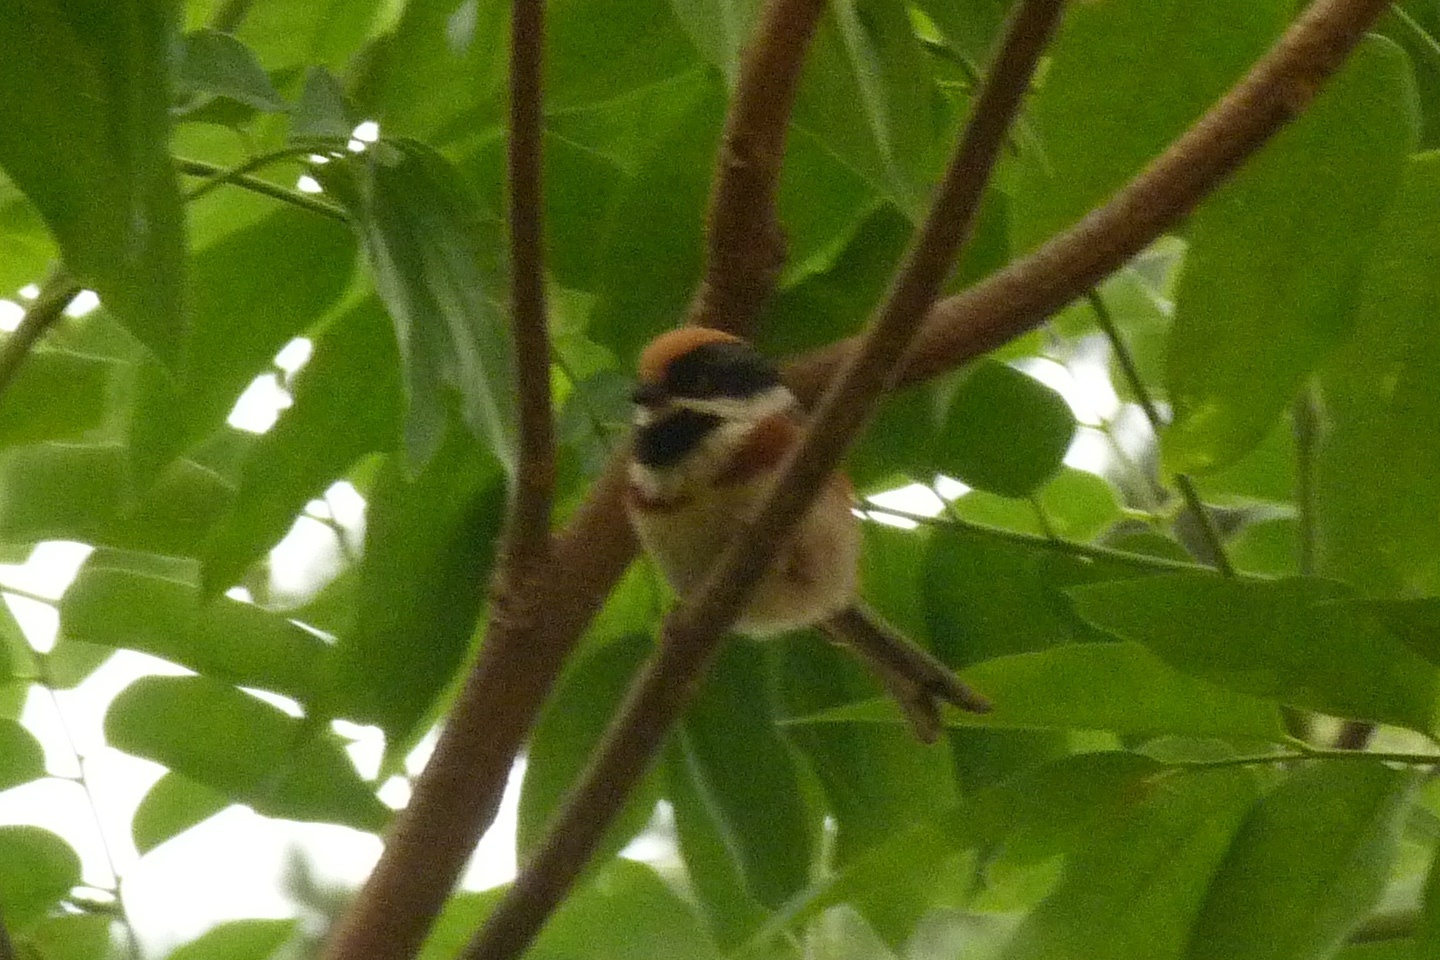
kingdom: Animalia
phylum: Chordata
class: Aves
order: Passeriformes
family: Aegithalidae
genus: Aegithalos
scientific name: Aegithalos concinnus
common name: Black-throated bushtit
